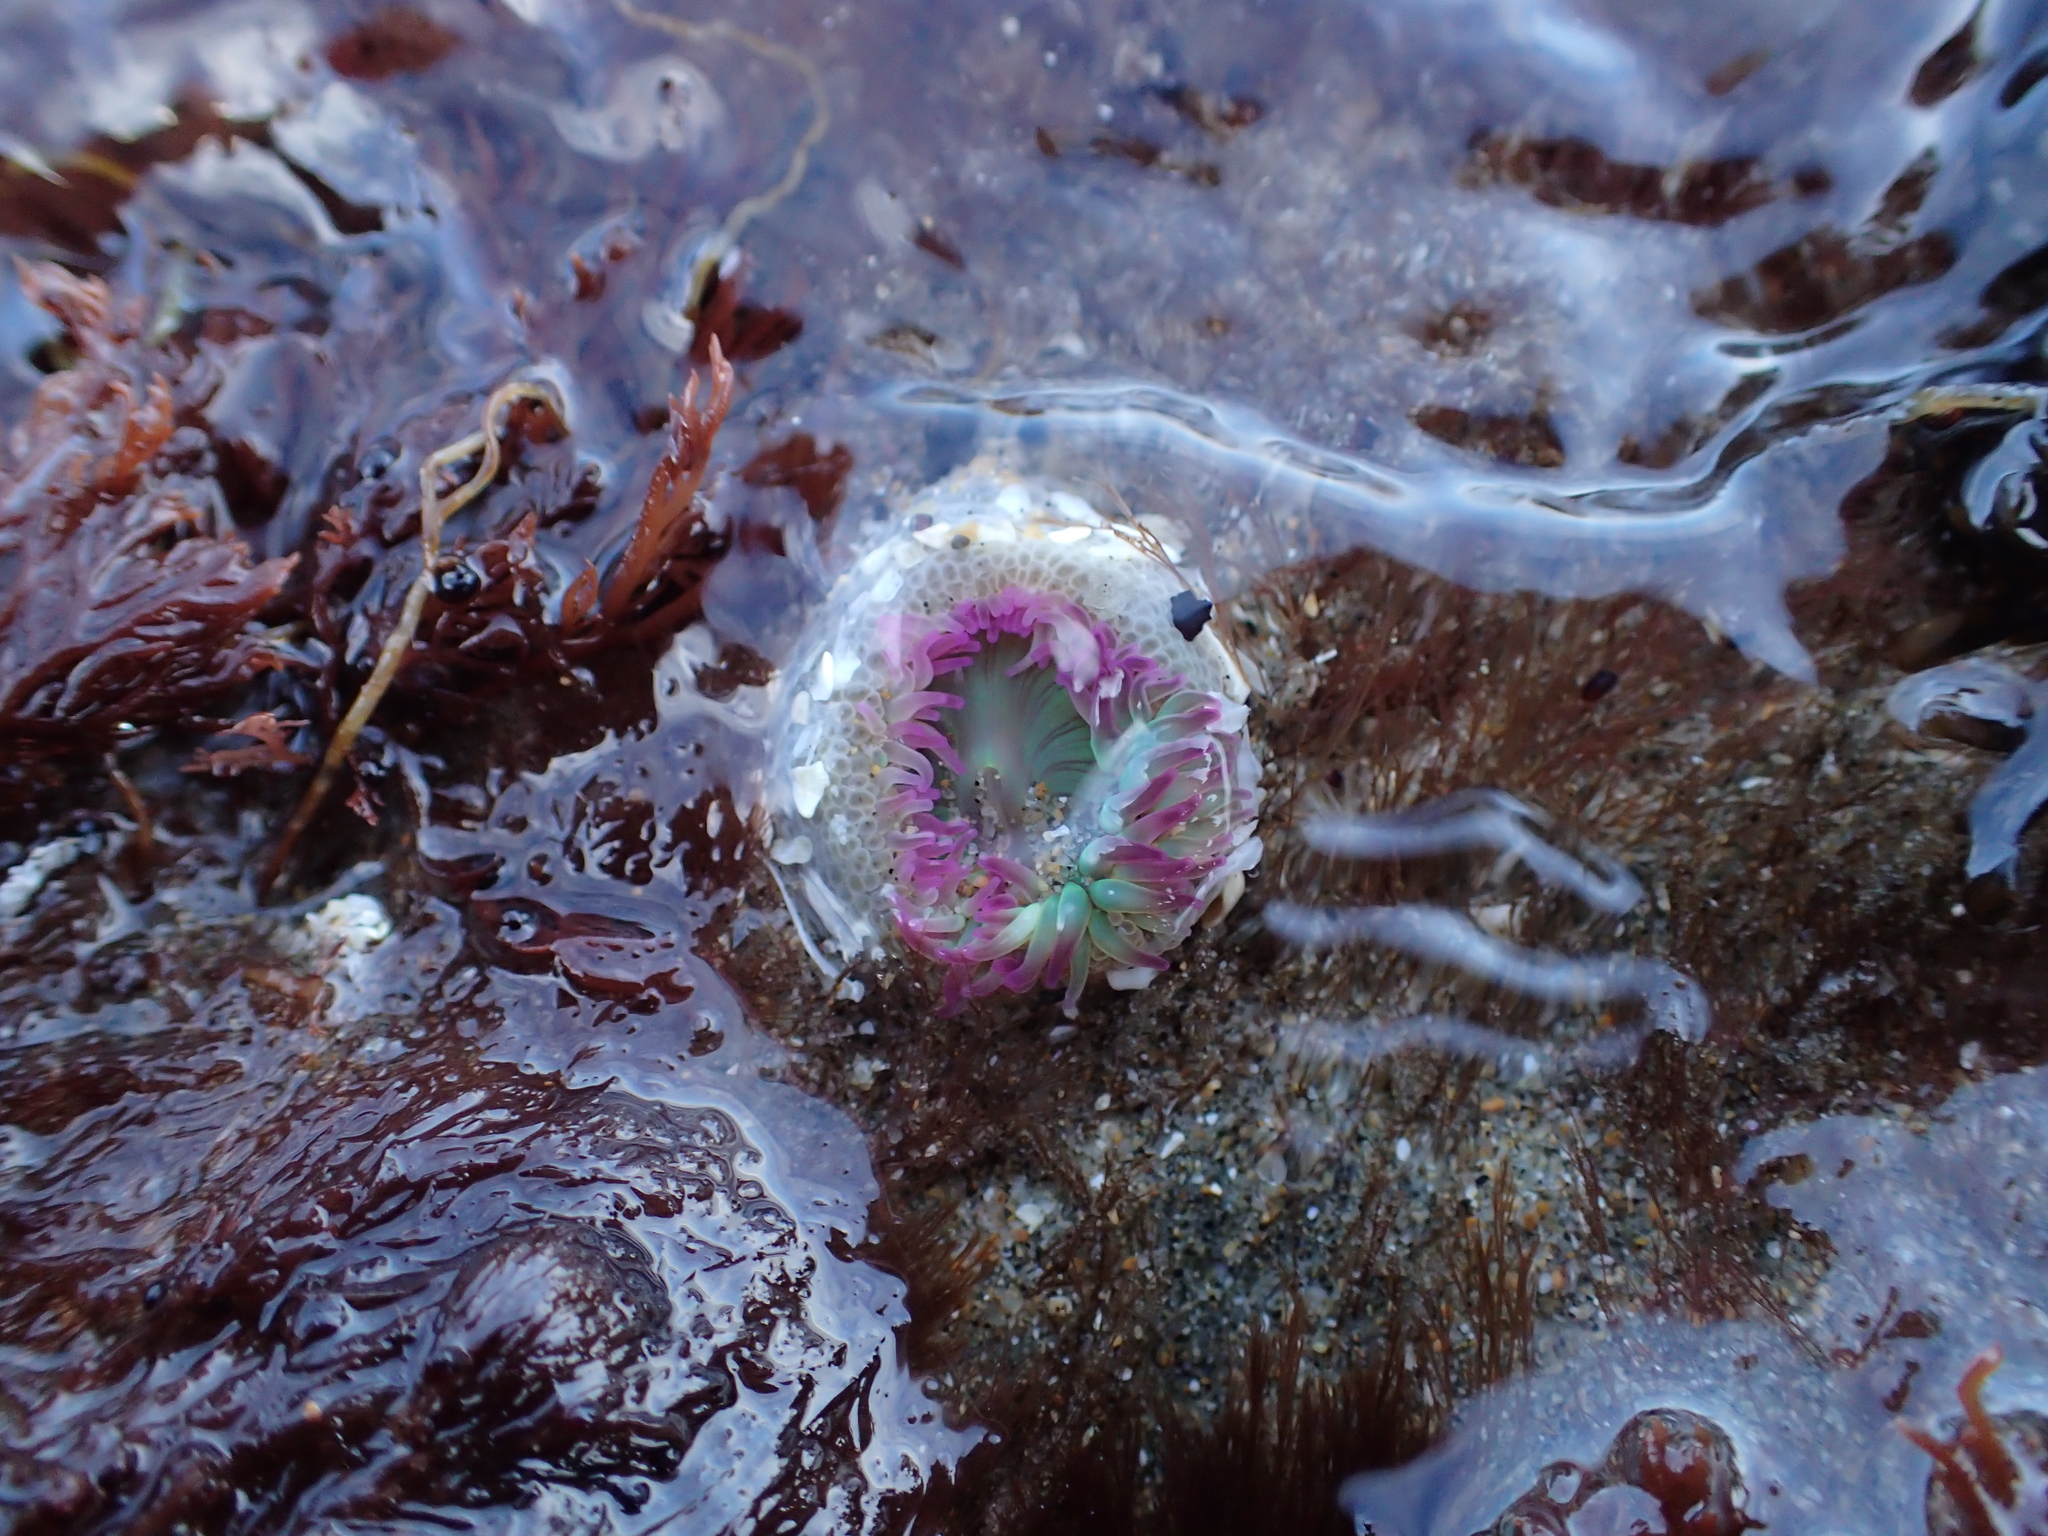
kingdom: Animalia
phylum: Cnidaria
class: Anthozoa
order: Actiniaria
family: Actiniidae
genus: Anthopleura
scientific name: Anthopleura elegantissima
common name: Clonal anemone
